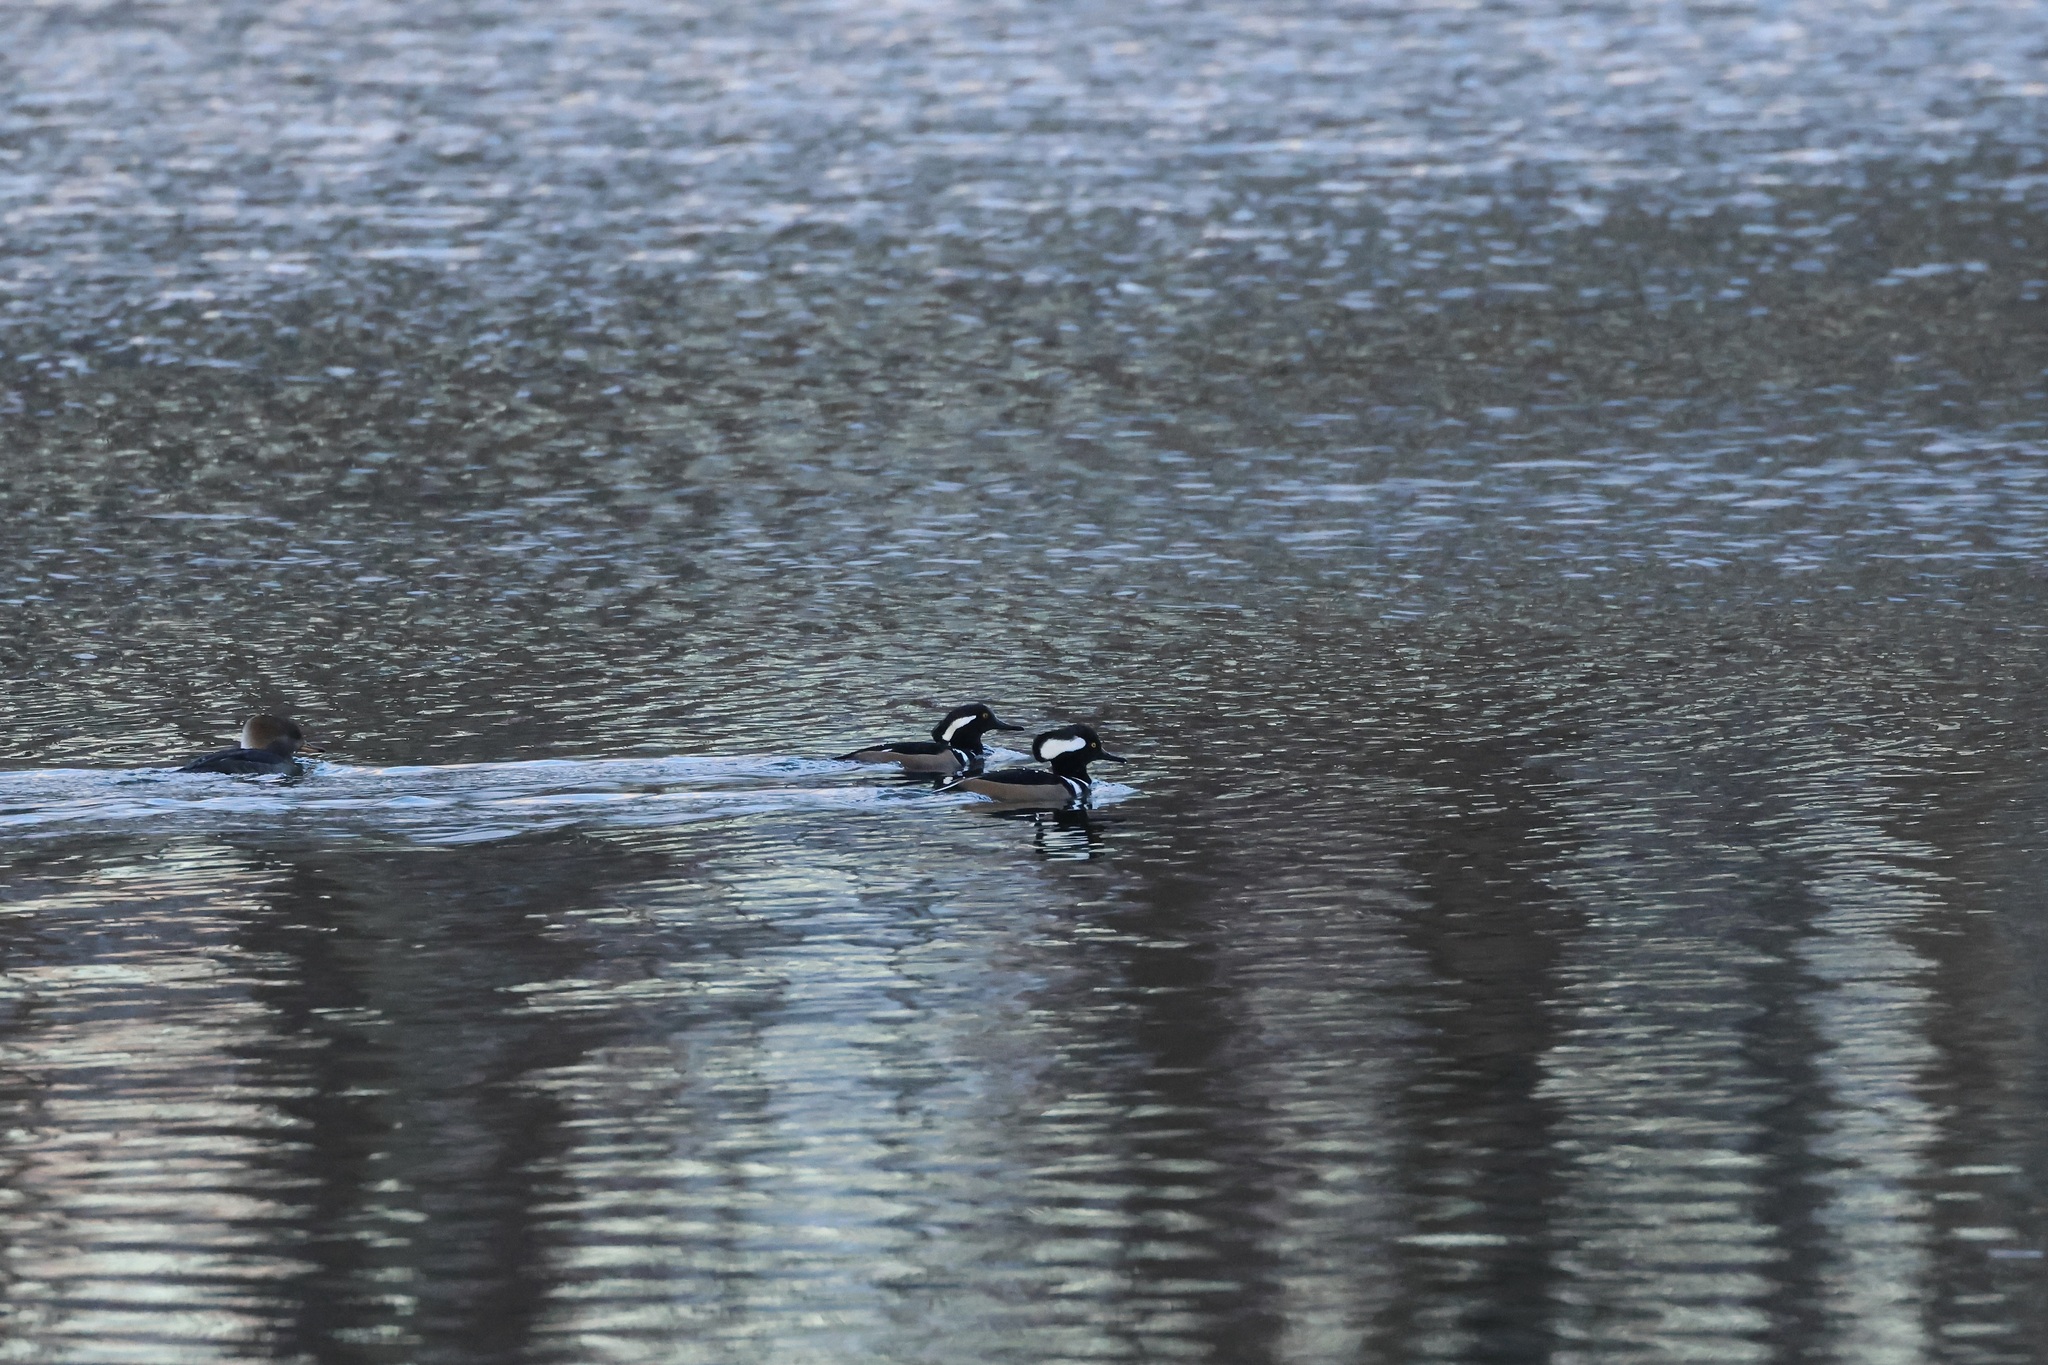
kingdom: Animalia
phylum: Chordata
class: Aves
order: Anseriformes
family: Anatidae
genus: Lophodytes
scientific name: Lophodytes cucullatus
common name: Hooded merganser
